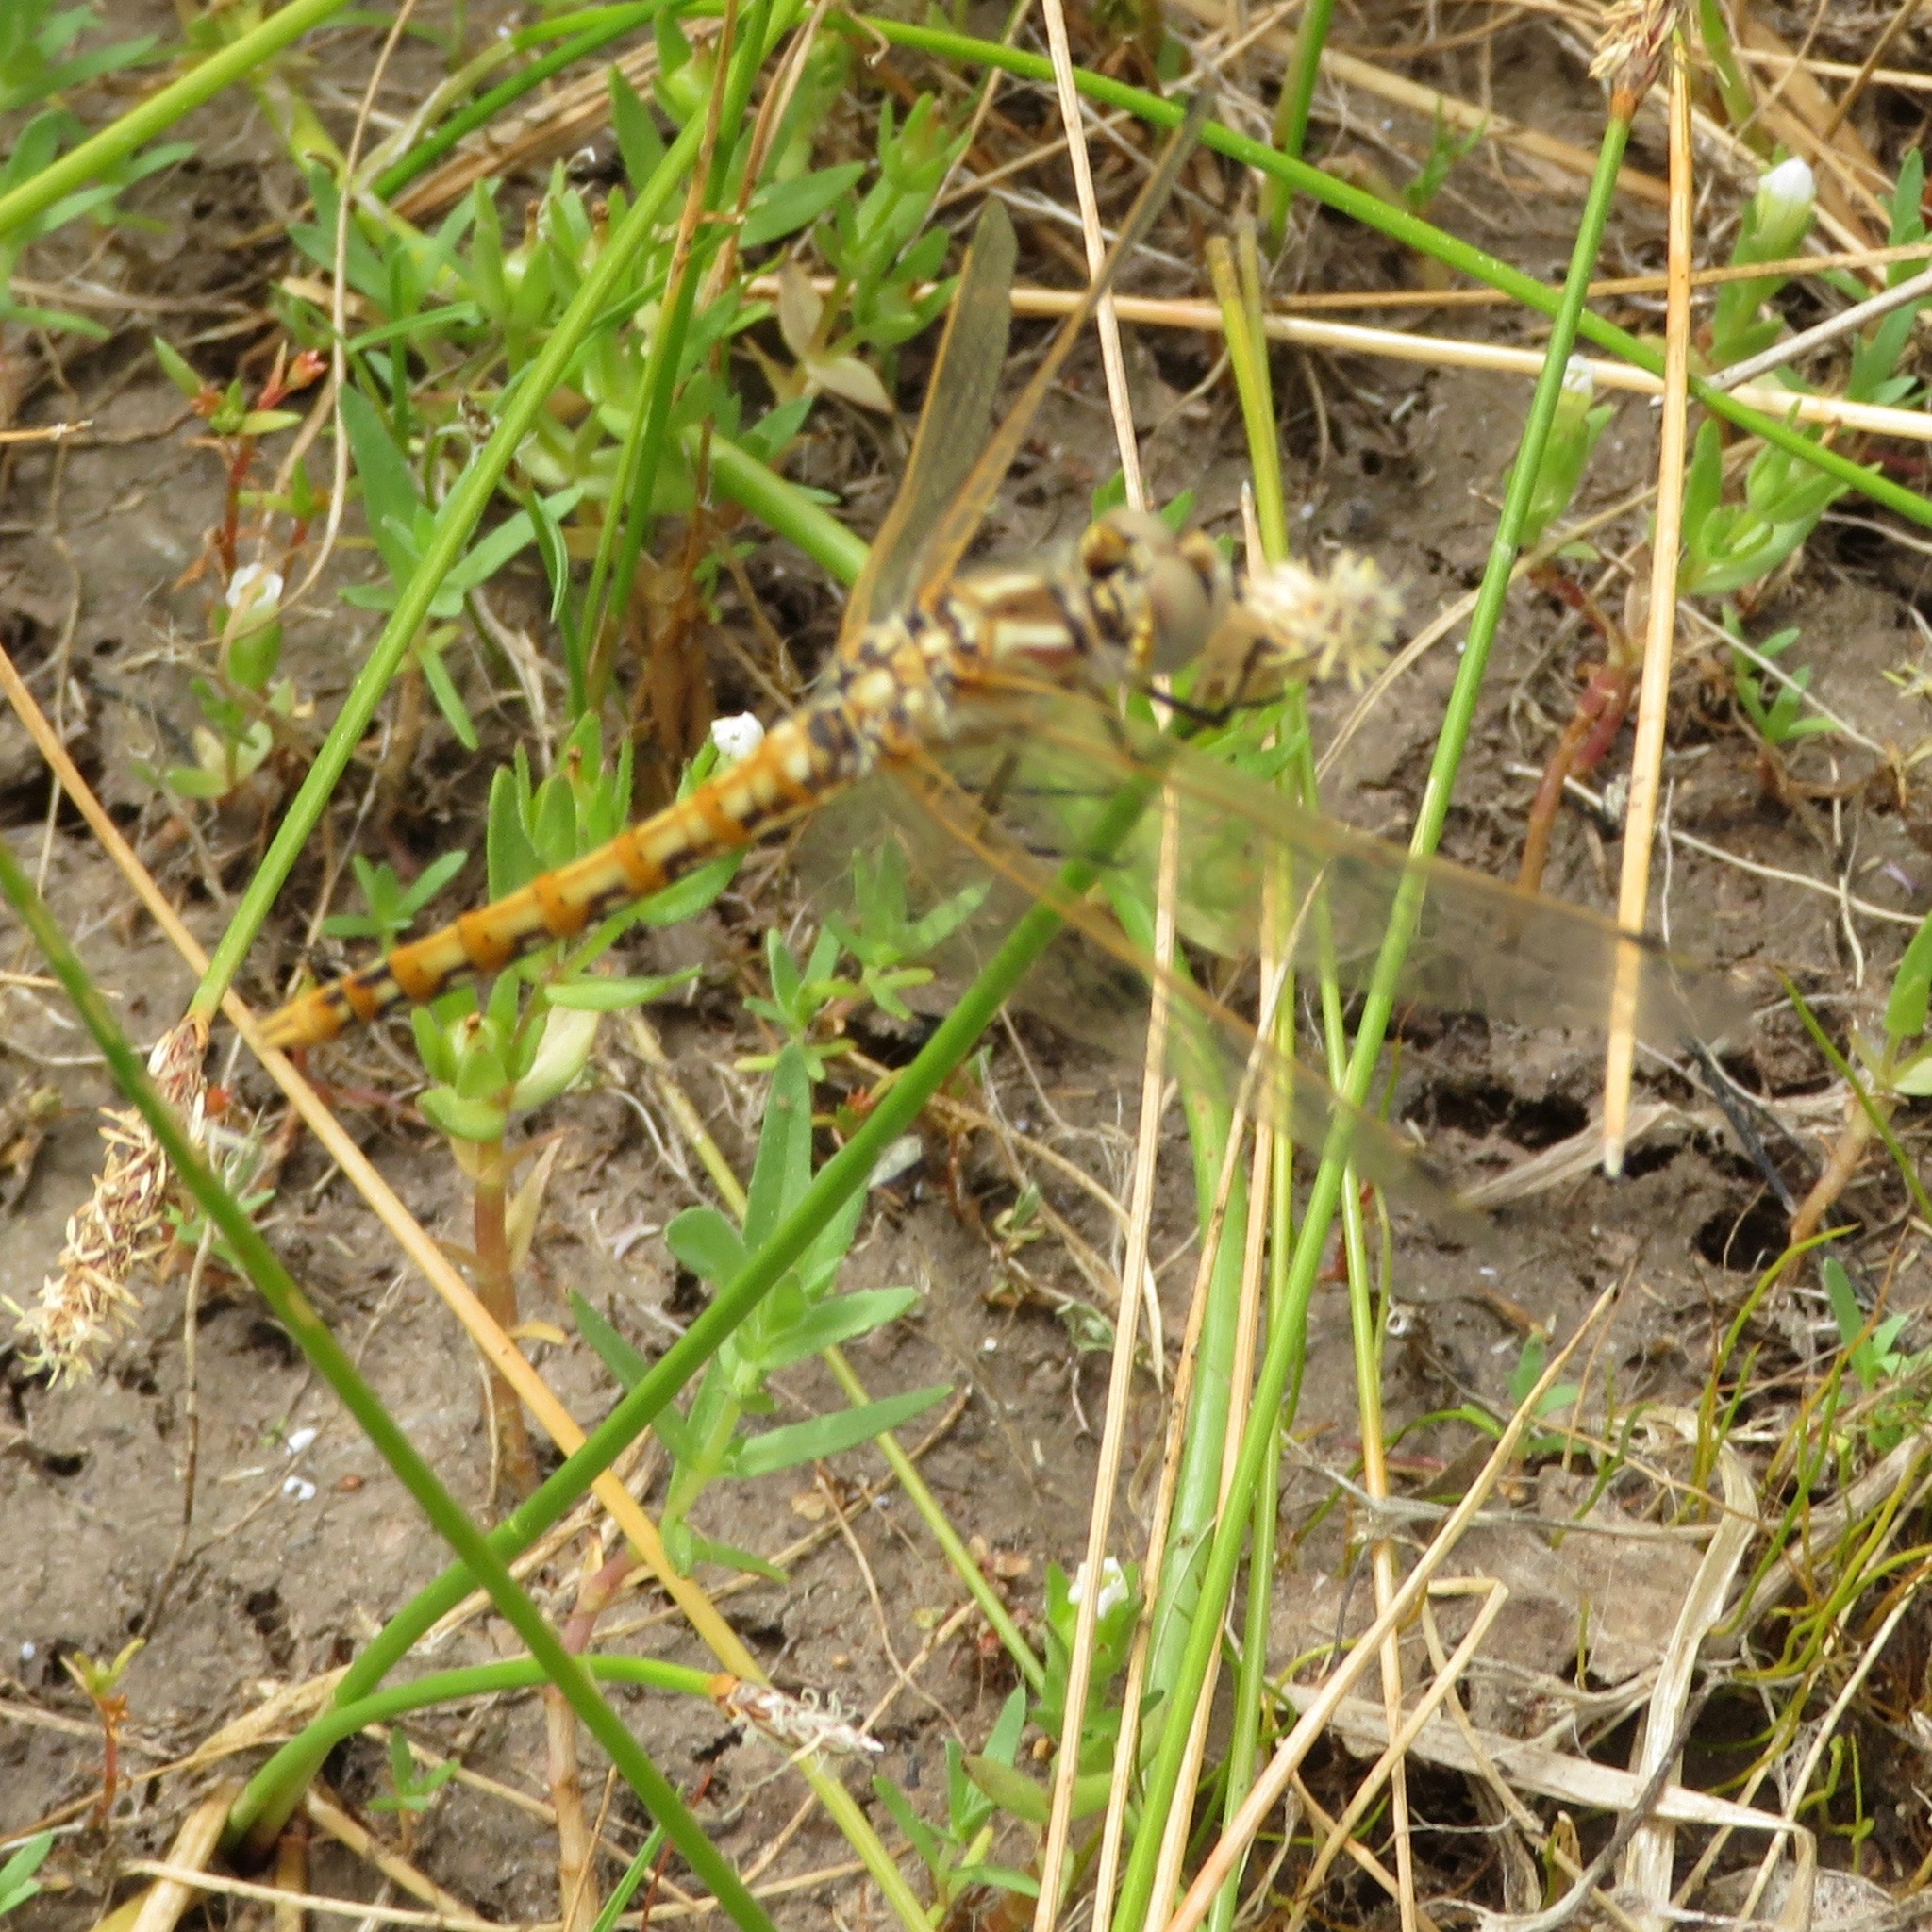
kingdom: Animalia
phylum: Arthropoda
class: Insecta
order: Odonata
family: Libellulidae
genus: Sympetrum
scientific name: Sympetrum corruptum
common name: Variegated meadowhawk
